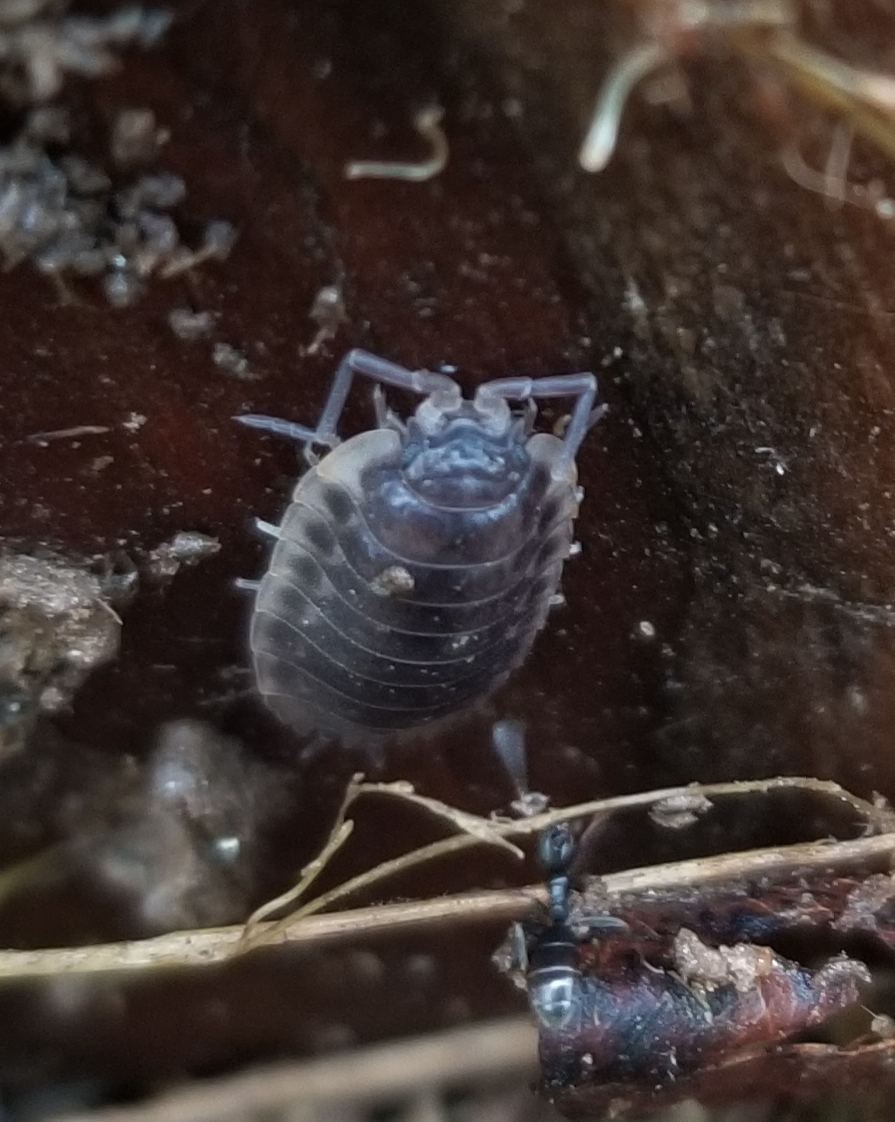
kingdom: Animalia
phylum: Arthropoda
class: Malacostraca
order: Isopoda
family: Oniscidae
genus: Oniscus
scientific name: Oniscus asellus
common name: Common shiny woodlouse
